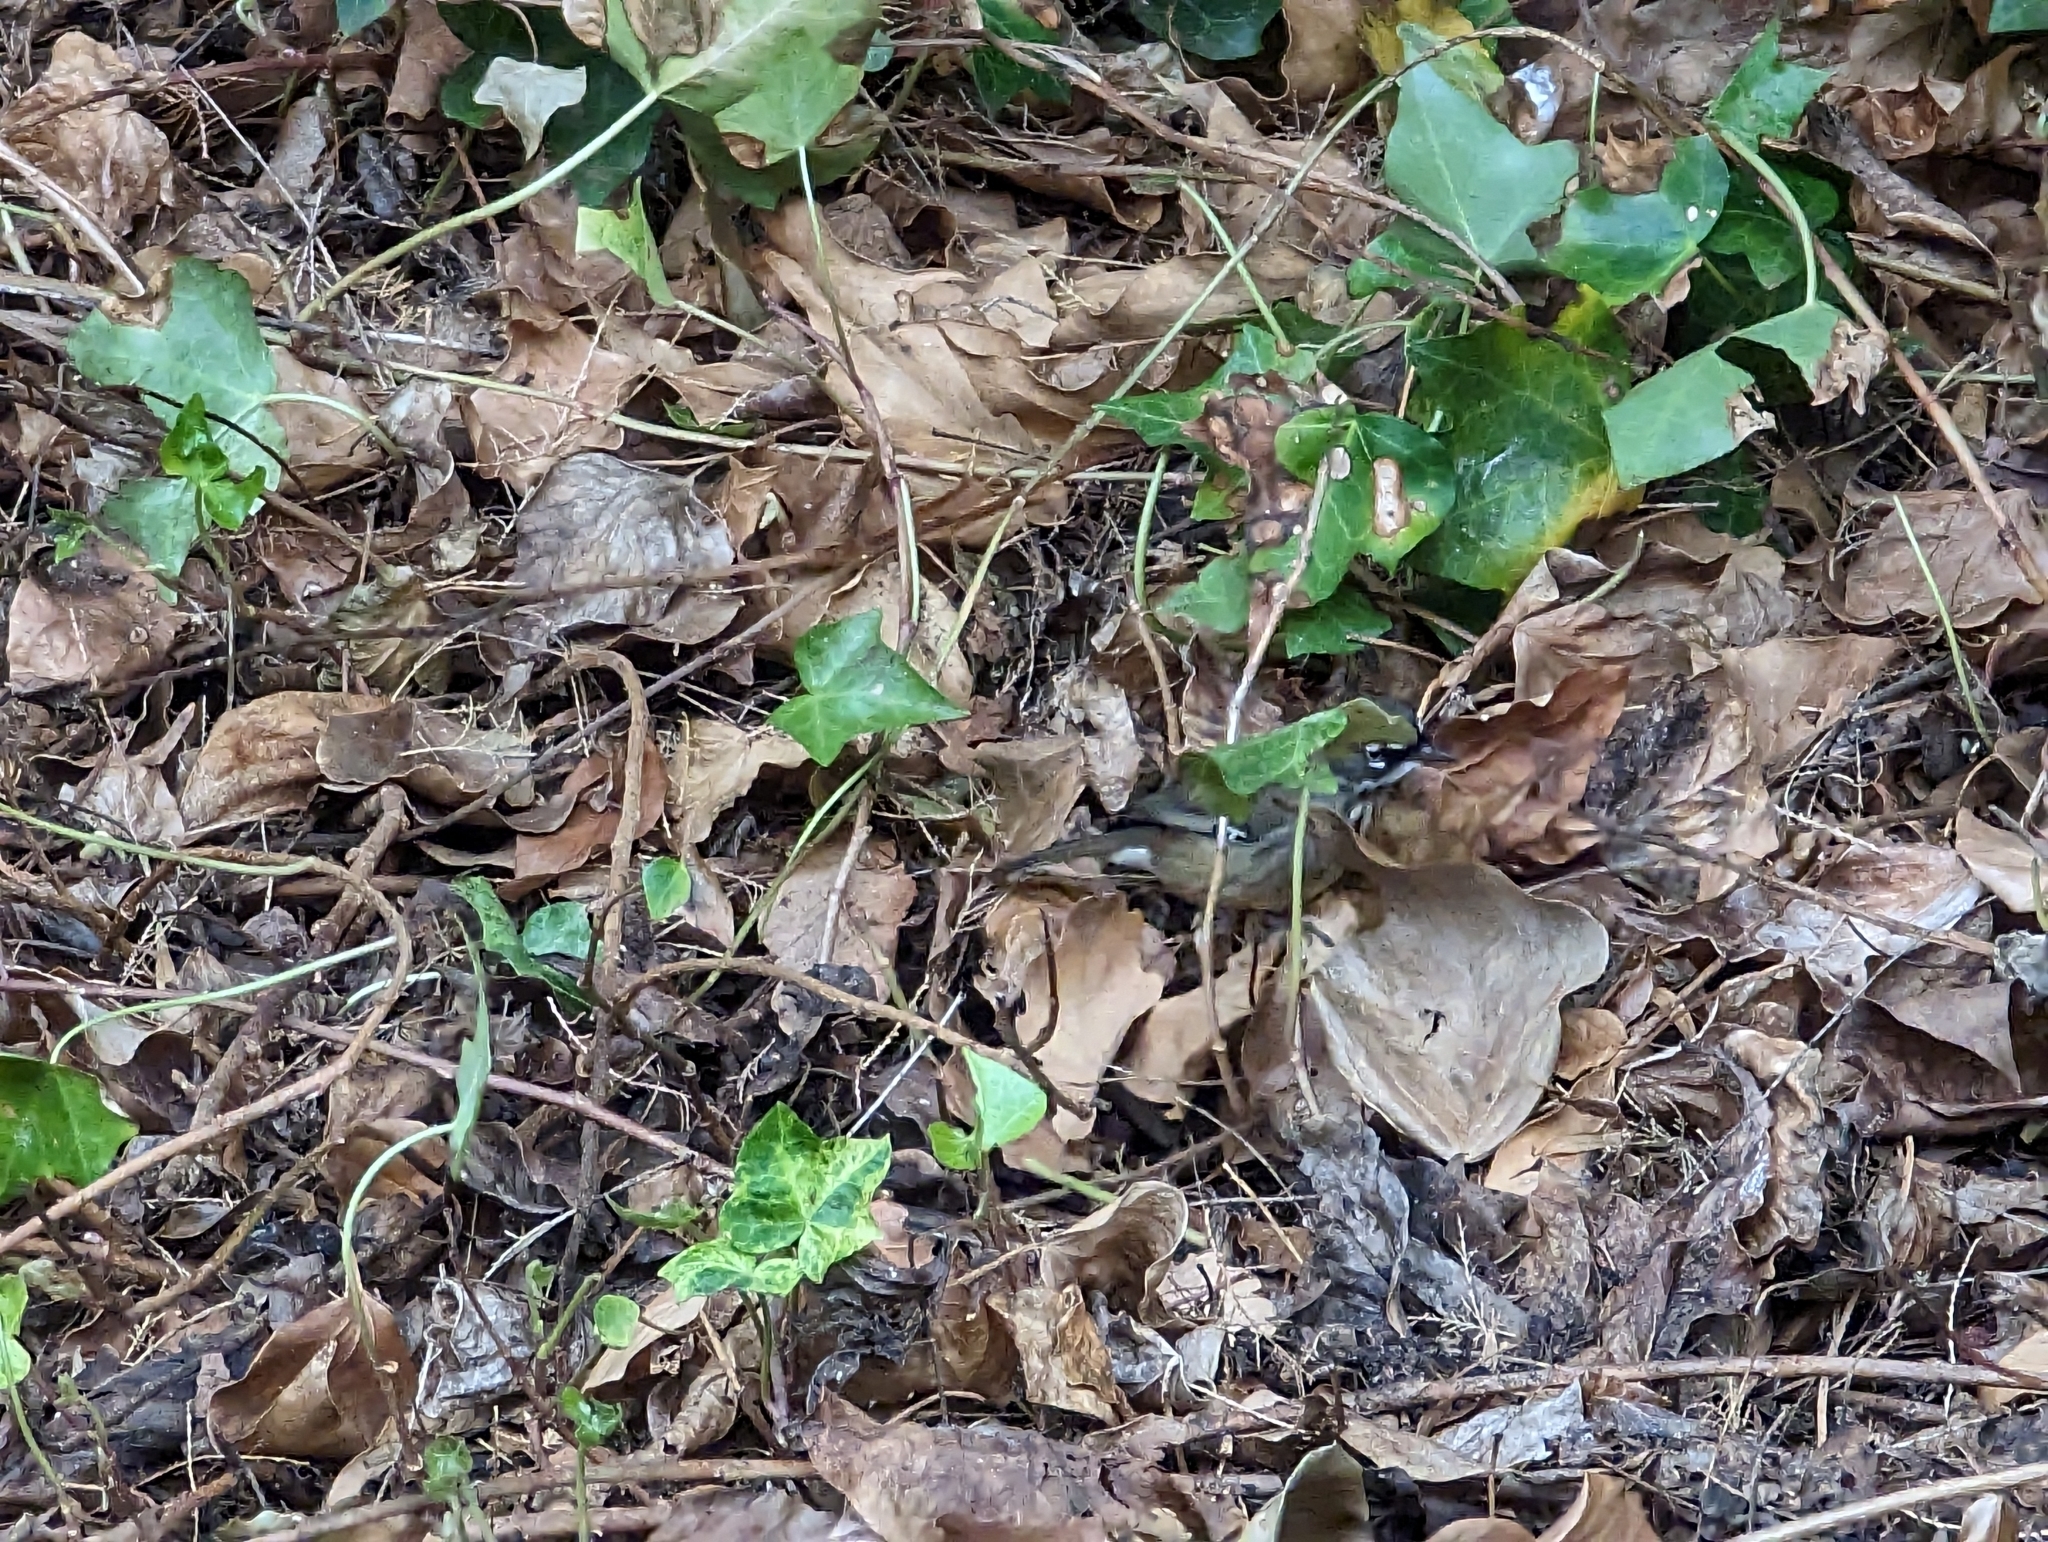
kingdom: Animalia
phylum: Chordata
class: Aves
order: Passeriformes
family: Acanthizidae
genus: Sericornis
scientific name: Sericornis maculatus
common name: Spotted scrubwren
